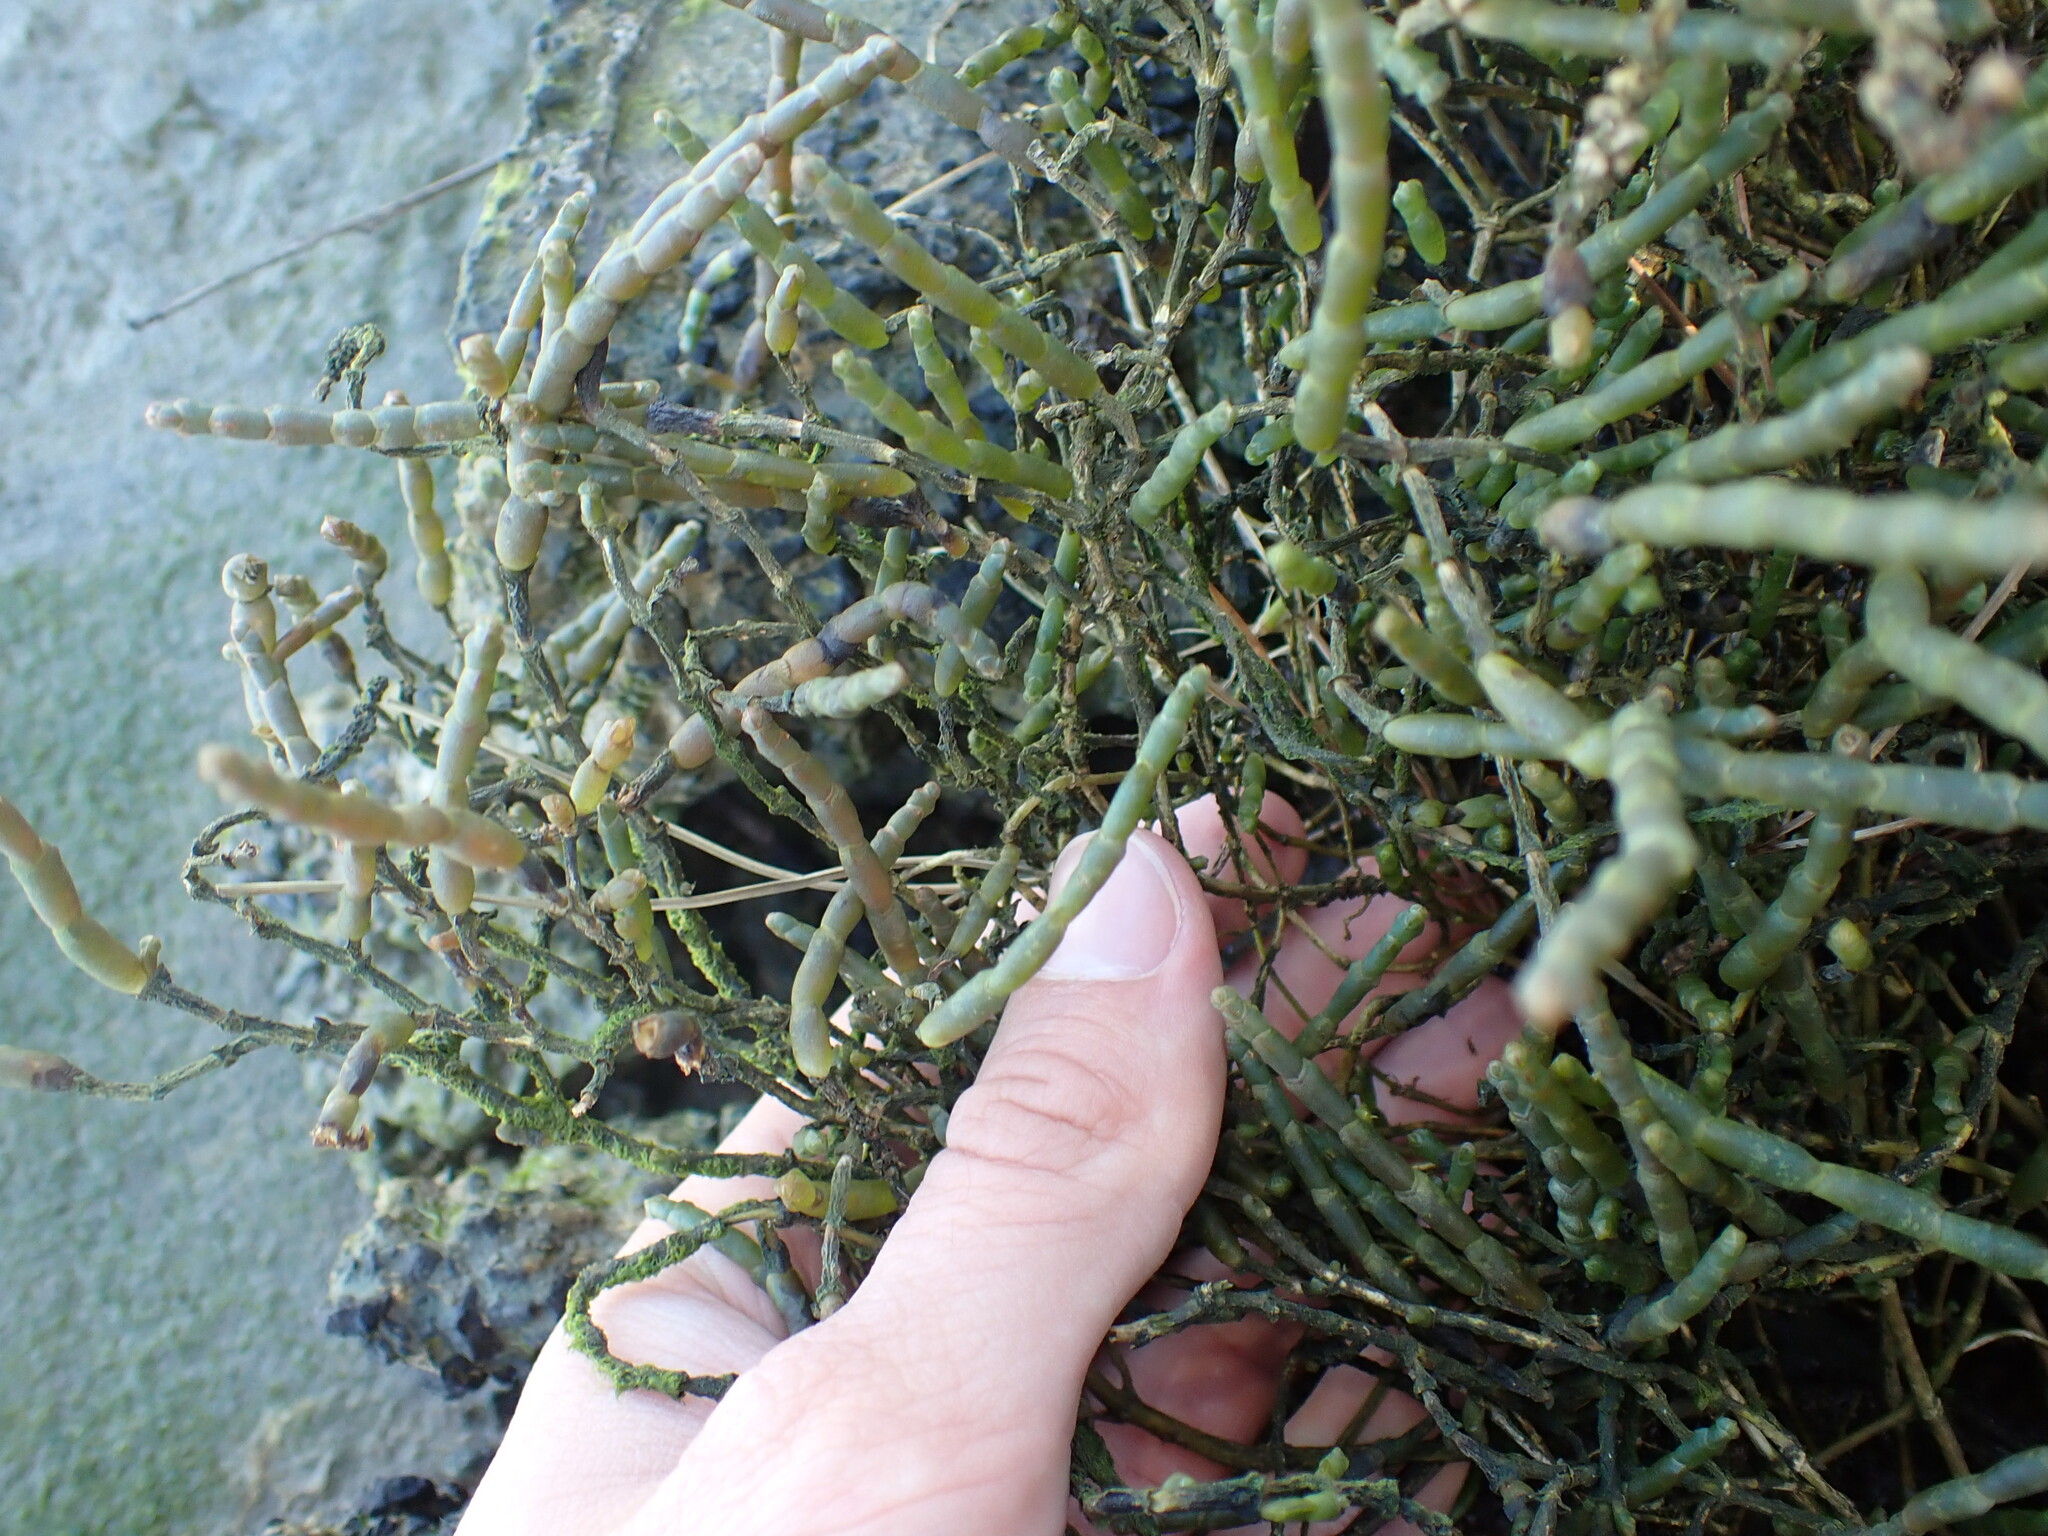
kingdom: Plantae
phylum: Tracheophyta
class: Magnoliopsida
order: Caryophyllales
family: Amaranthaceae
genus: Salicornia
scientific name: Salicornia quinqueflora
